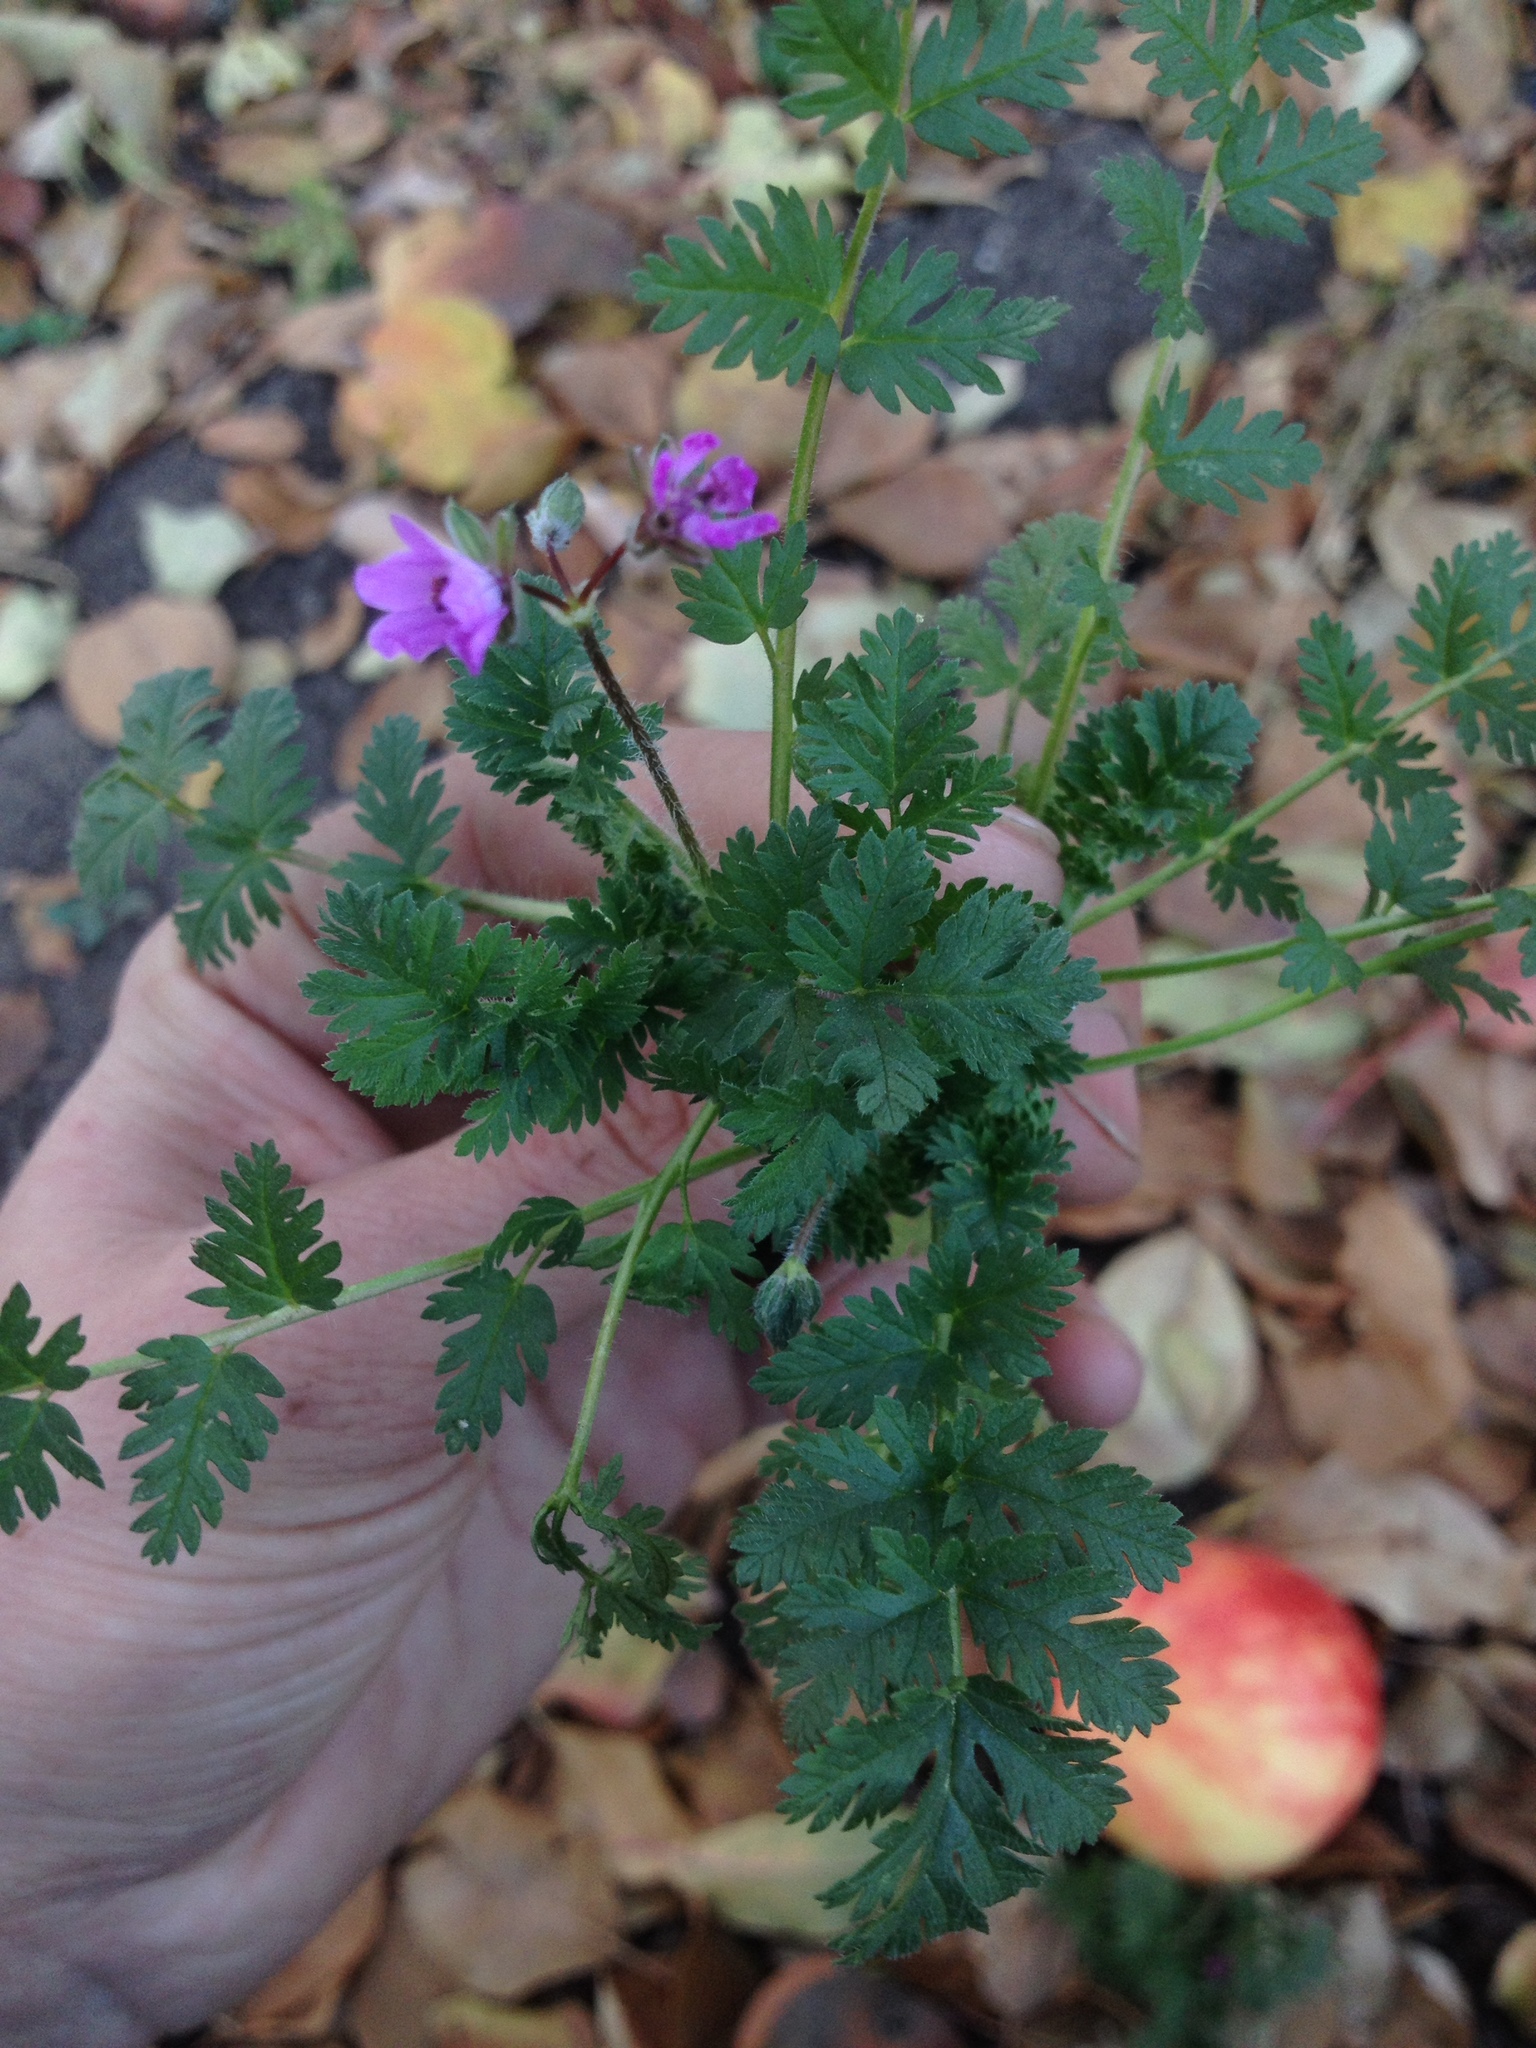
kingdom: Plantae
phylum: Tracheophyta
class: Magnoliopsida
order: Geraniales
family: Geraniaceae
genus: Erodium
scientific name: Erodium cicutarium
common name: Common stork's-bill
